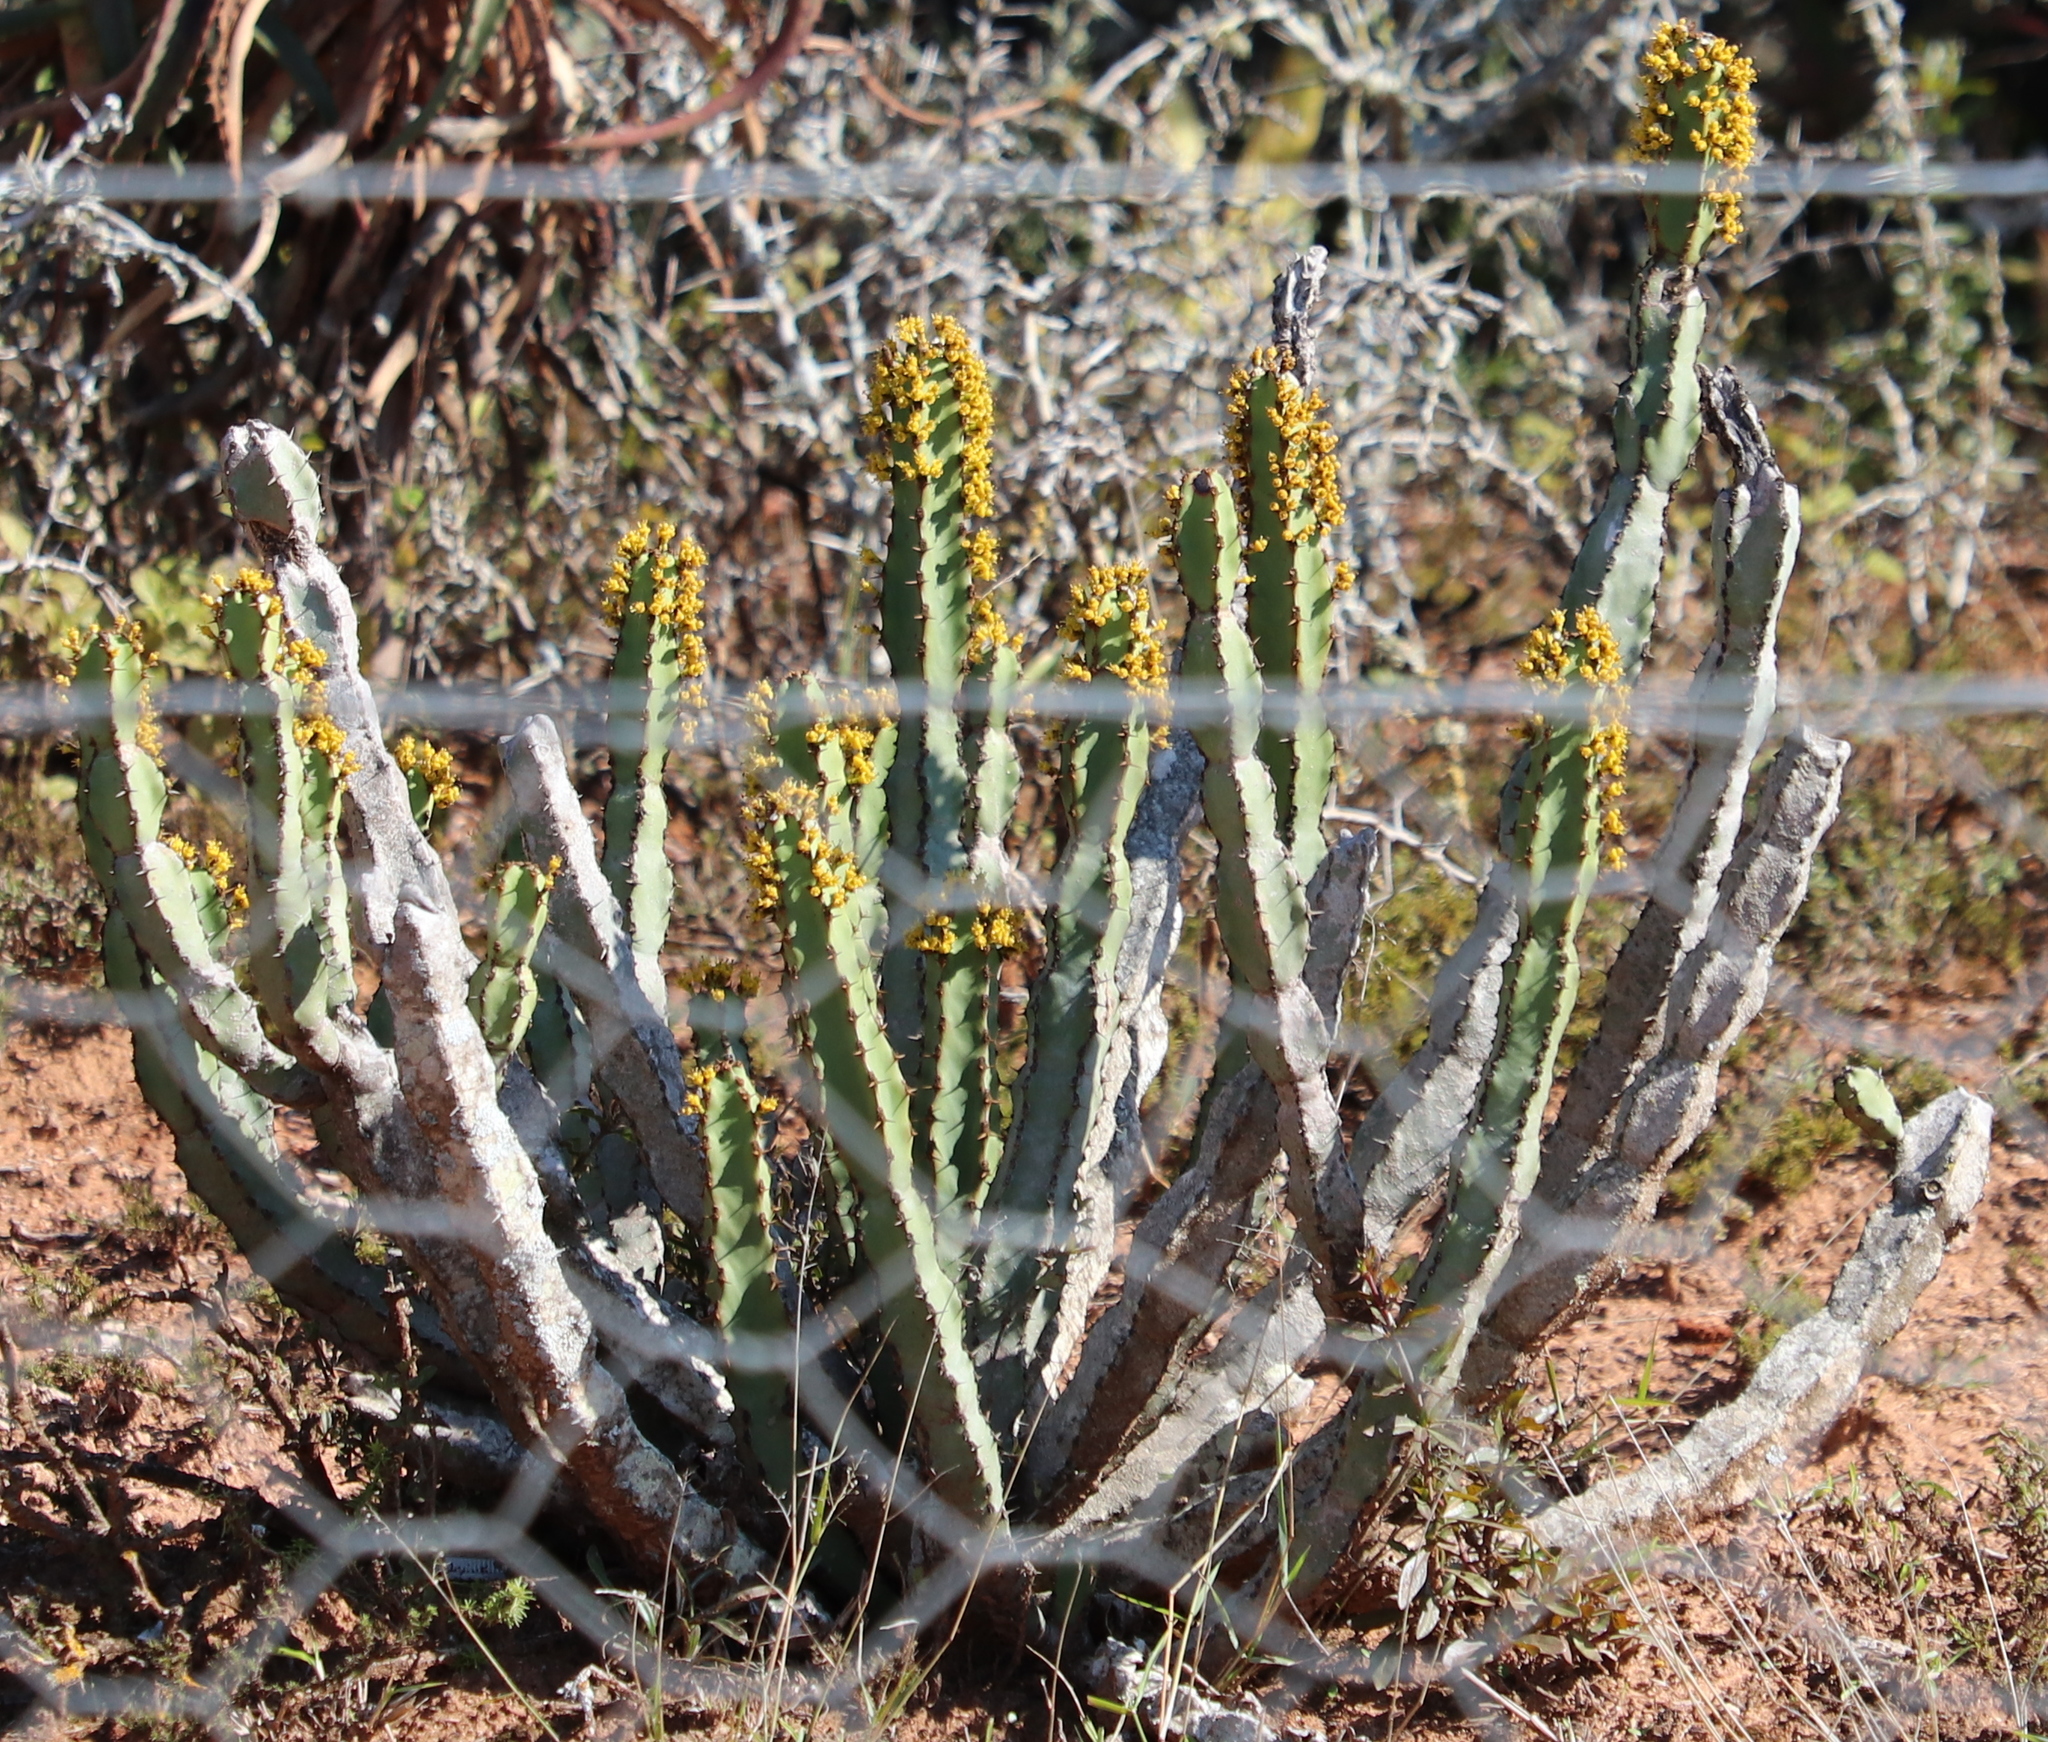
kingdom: Plantae
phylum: Tracheophyta
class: Magnoliopsida
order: Malpighiales
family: Euphorbiaceae
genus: Euphorbia
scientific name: Euphorbia caerulescens
